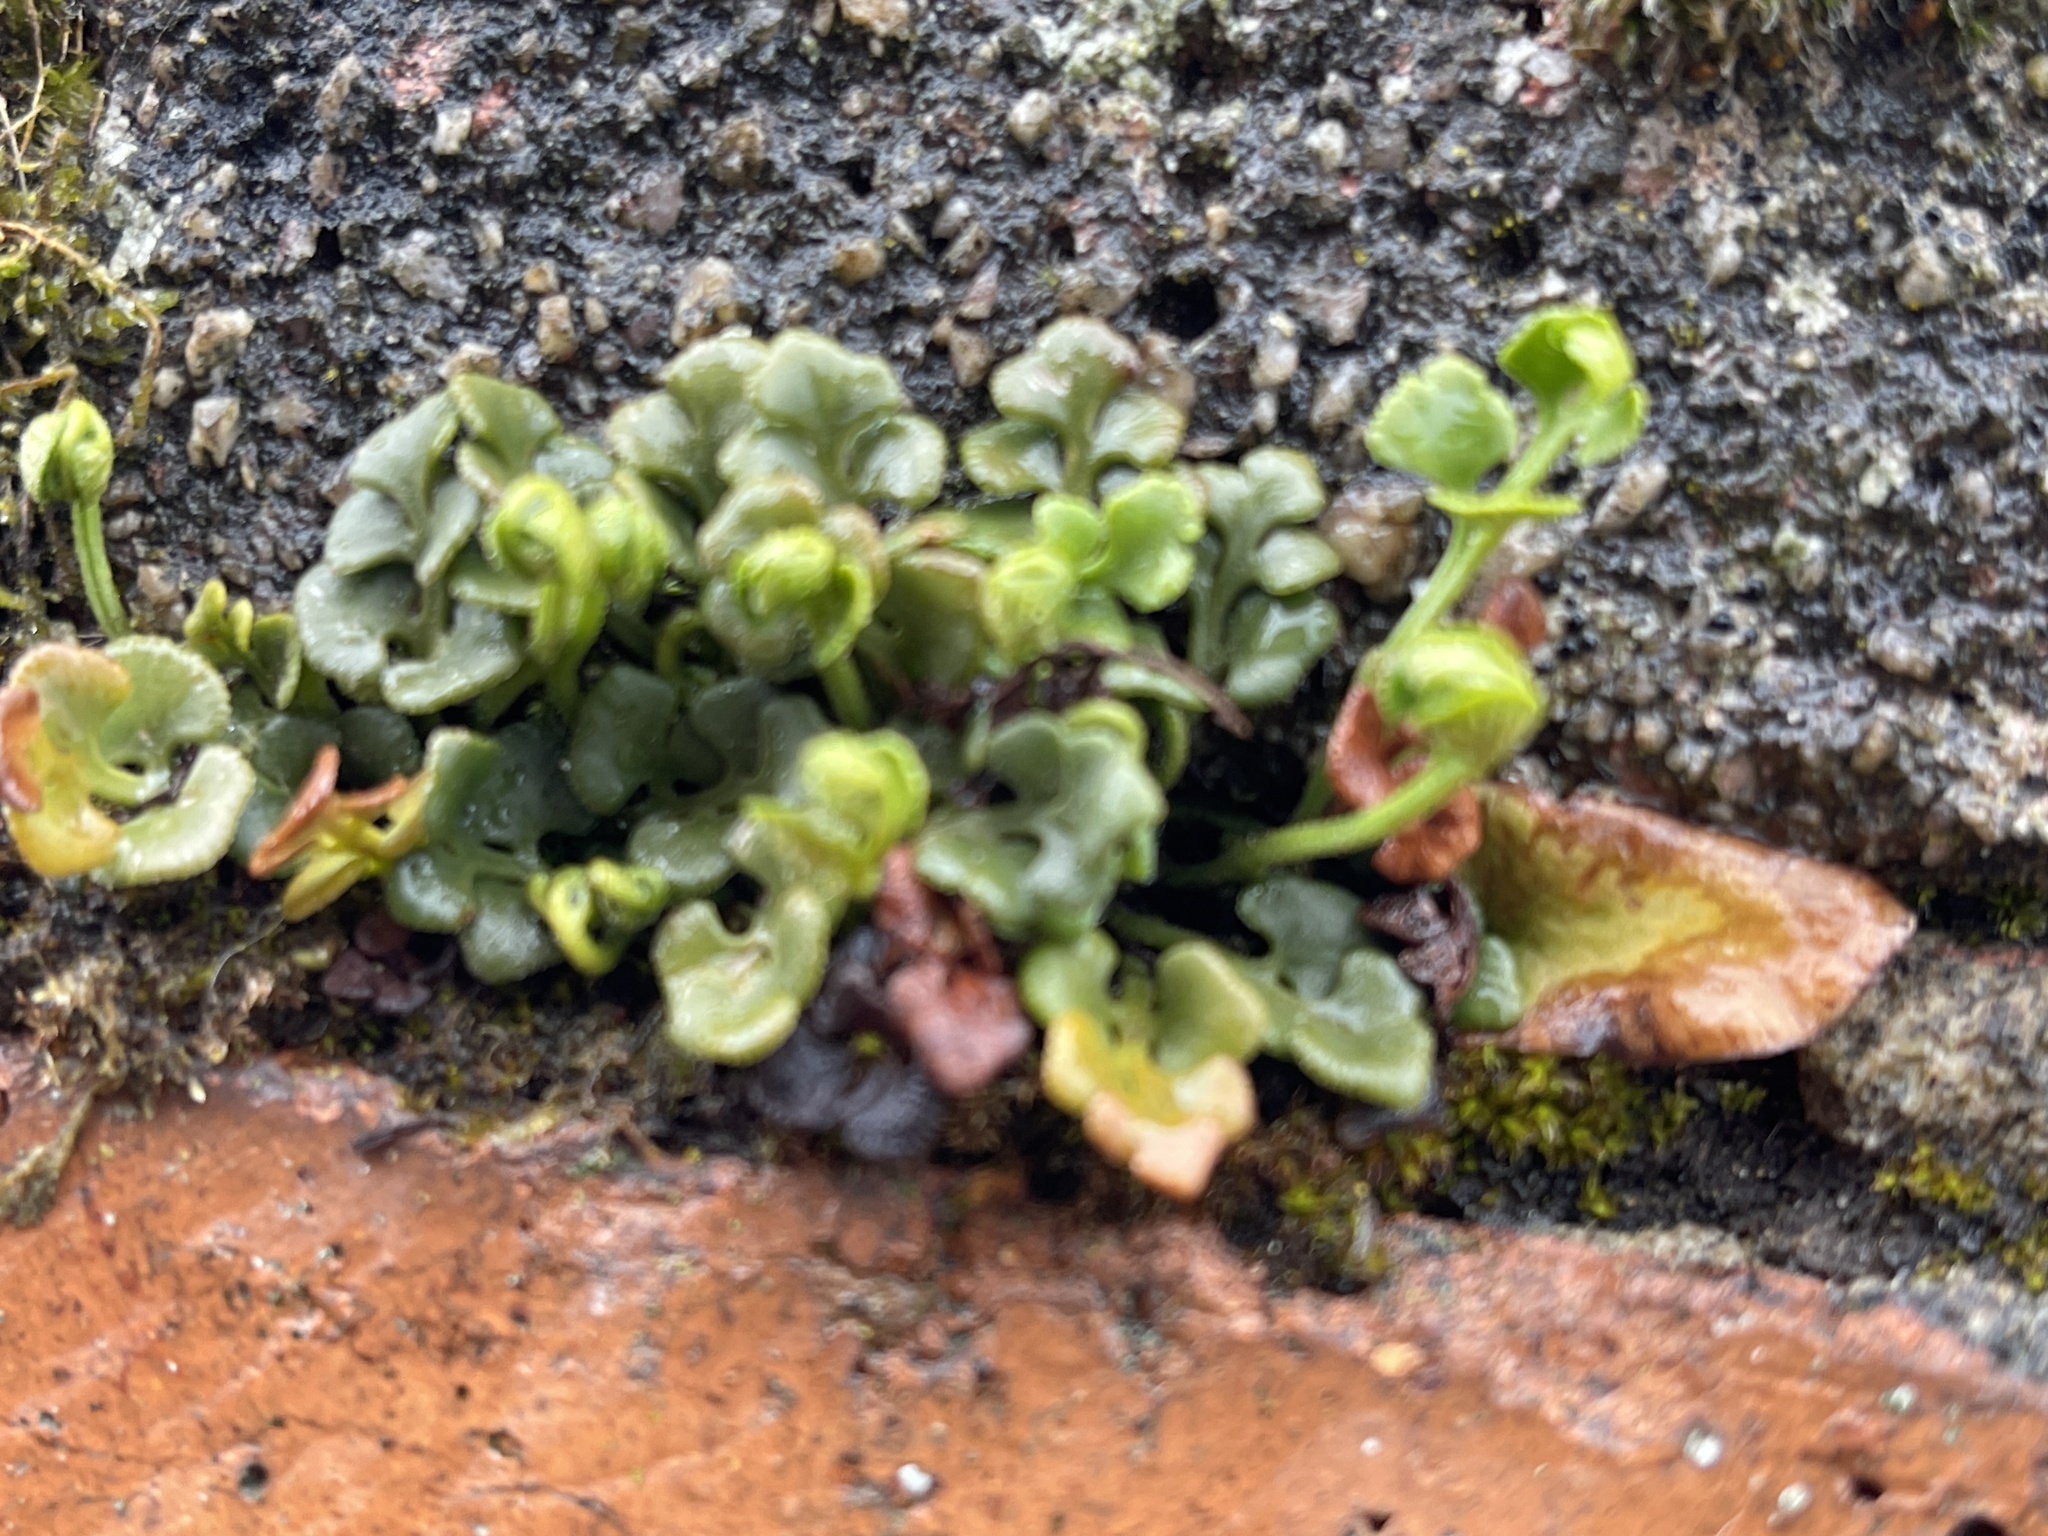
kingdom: Plantae
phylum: Tracheophyta
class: Polypodiopsida
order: Polypodiales
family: Aspleniaceae
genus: Asplenium
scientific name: Asplenium ruta-muraria
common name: Wall-rue
